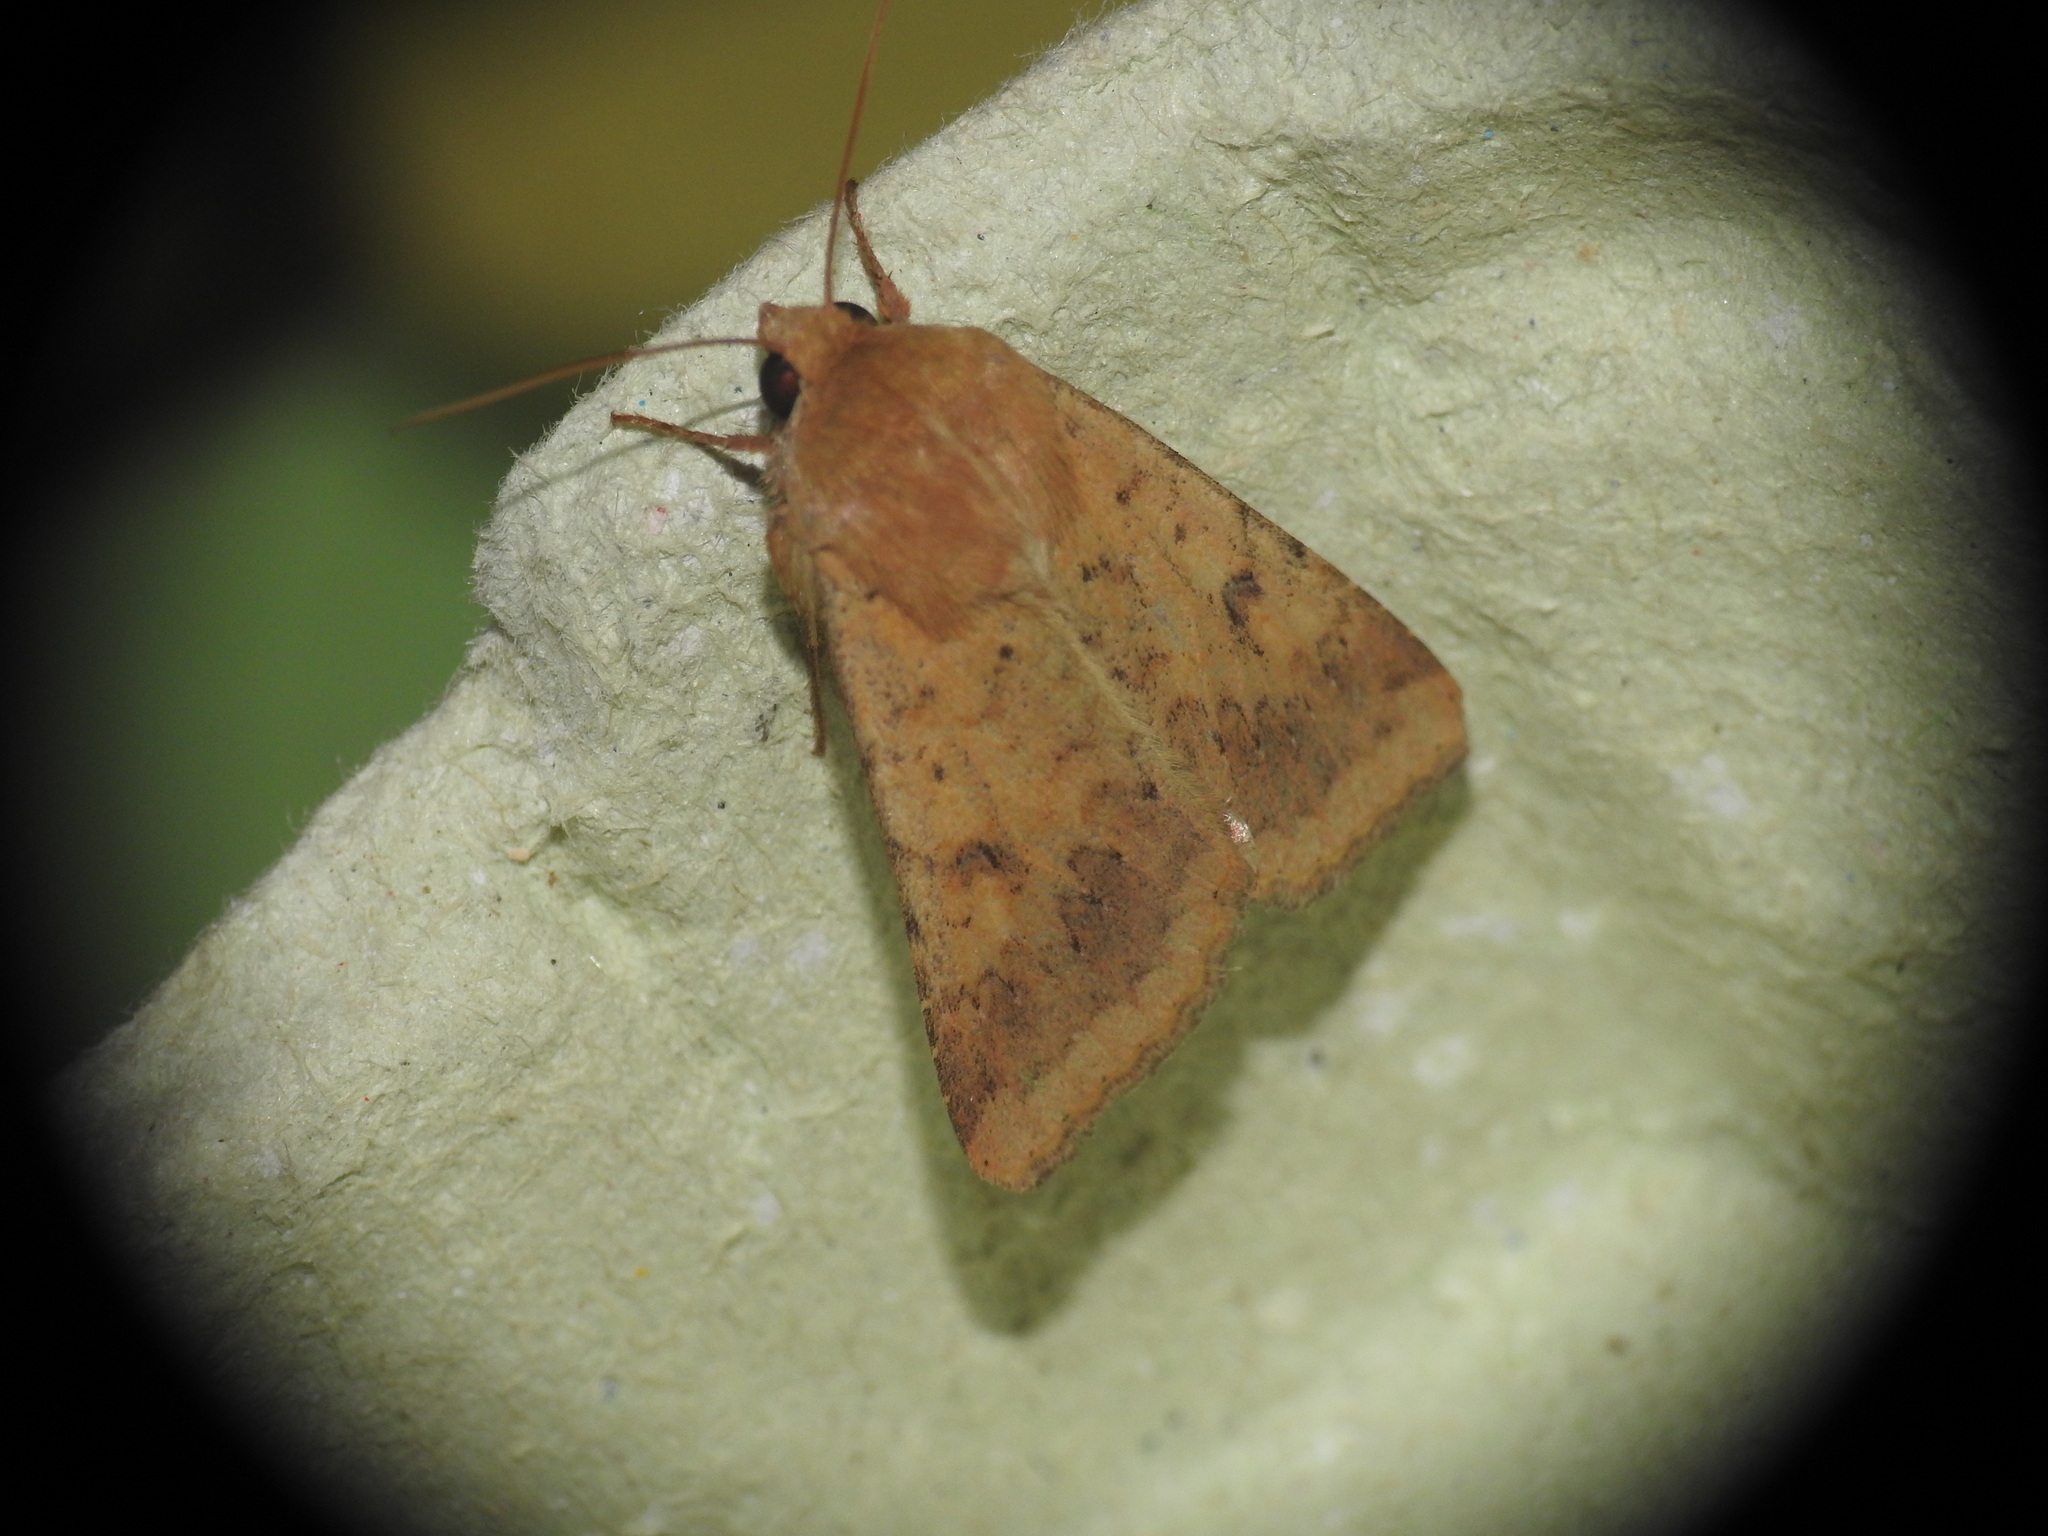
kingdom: Animalia
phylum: Arthropoda
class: Insecta
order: Lepidoptera
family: Noctuidae
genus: Helicoverpa
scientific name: Helicoverpa armigera
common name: Cotton bollworm
